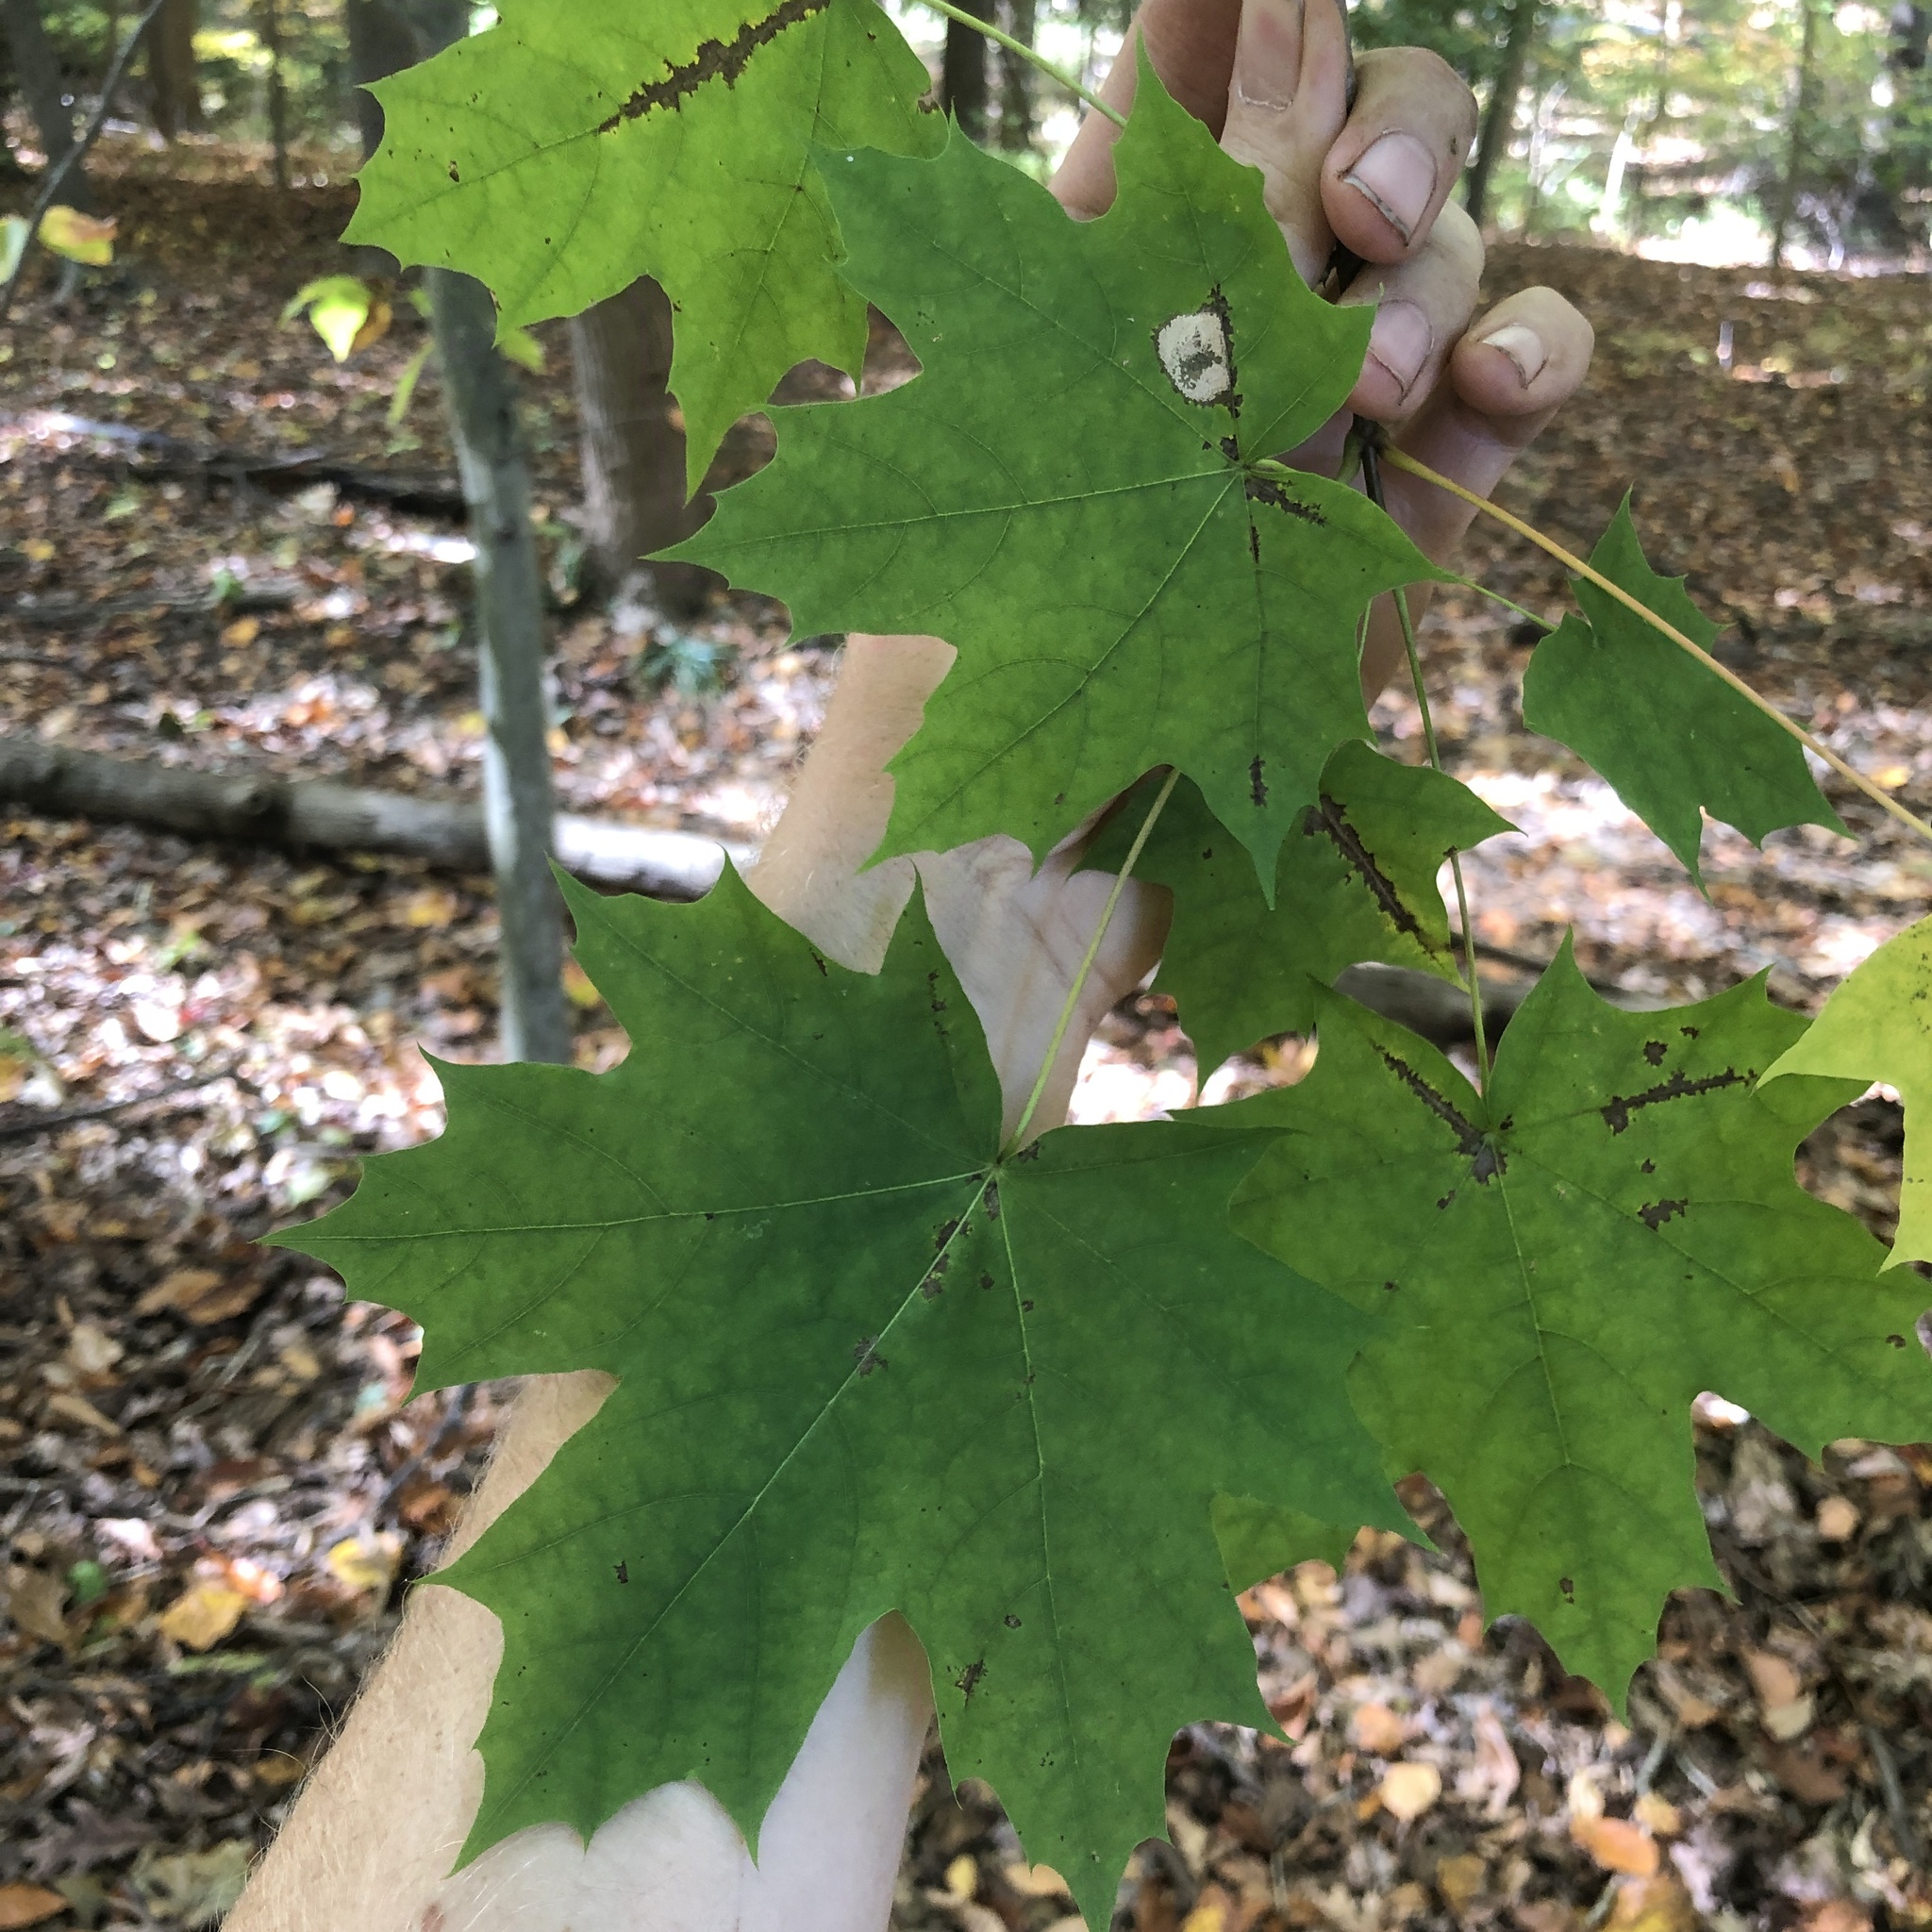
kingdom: Plantae
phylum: Tracheophyta
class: Magnoliopsida
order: Sapindales
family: Sapindaceae
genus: Acer
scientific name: Acer platanoides
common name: Norway maple
